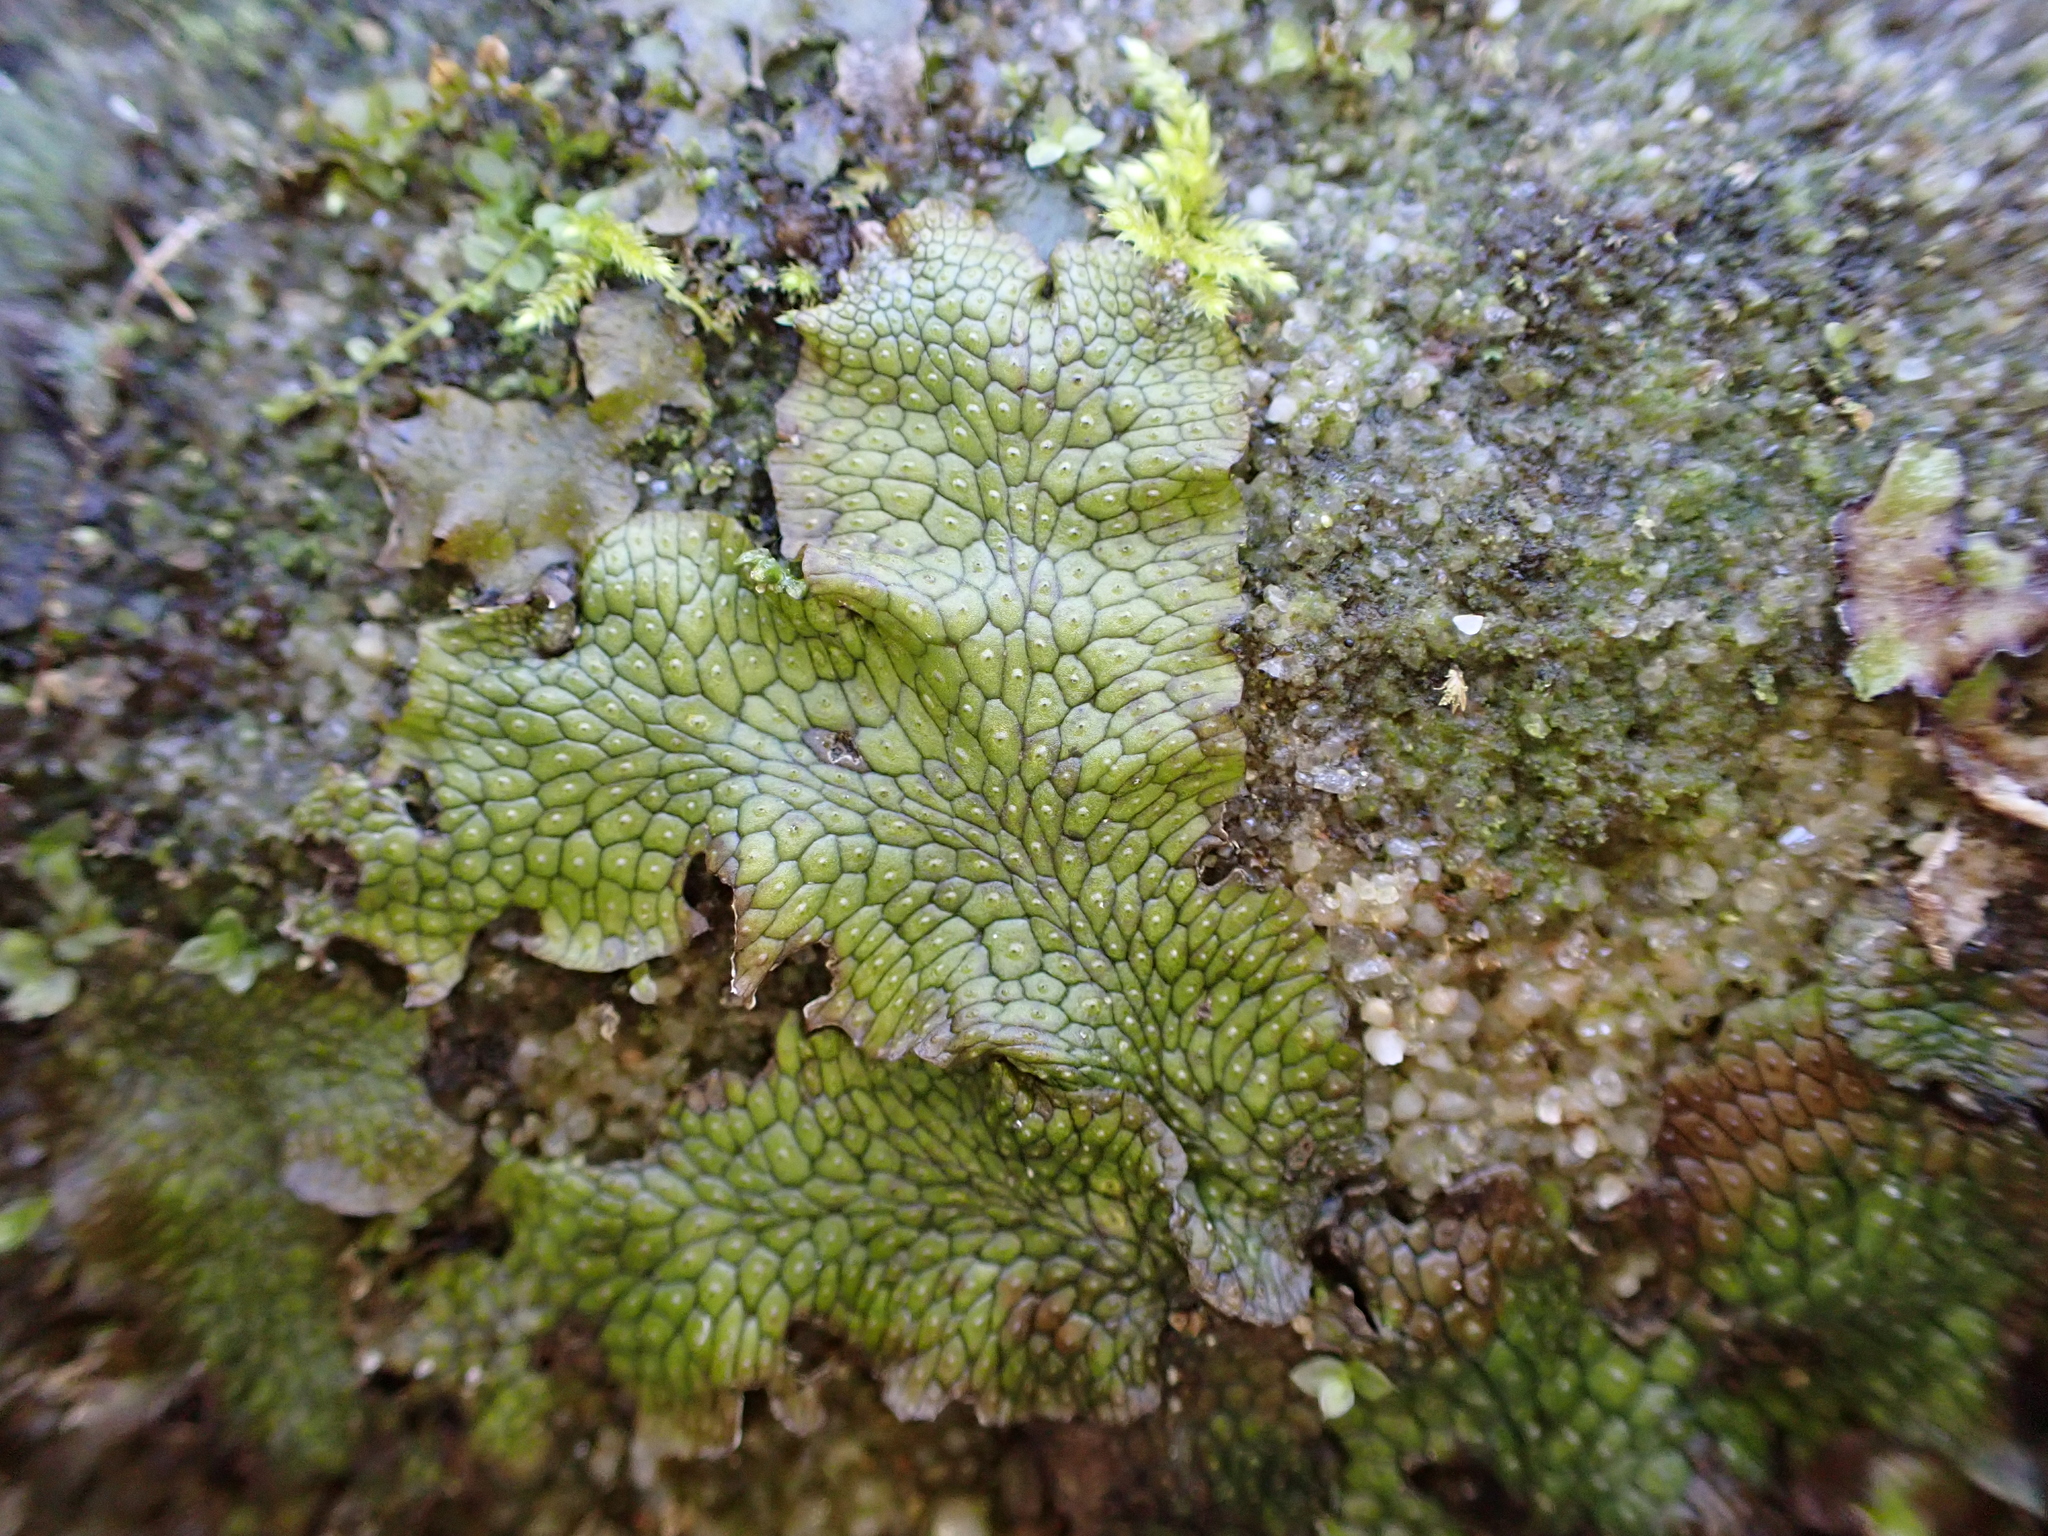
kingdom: Plantae
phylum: Marchantiophyta
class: Marchantiopsida
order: Marchantiales
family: Conocephalaceae
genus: Conocephalum
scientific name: Conocephalum salebrosum
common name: Cat-tongue liverwort
